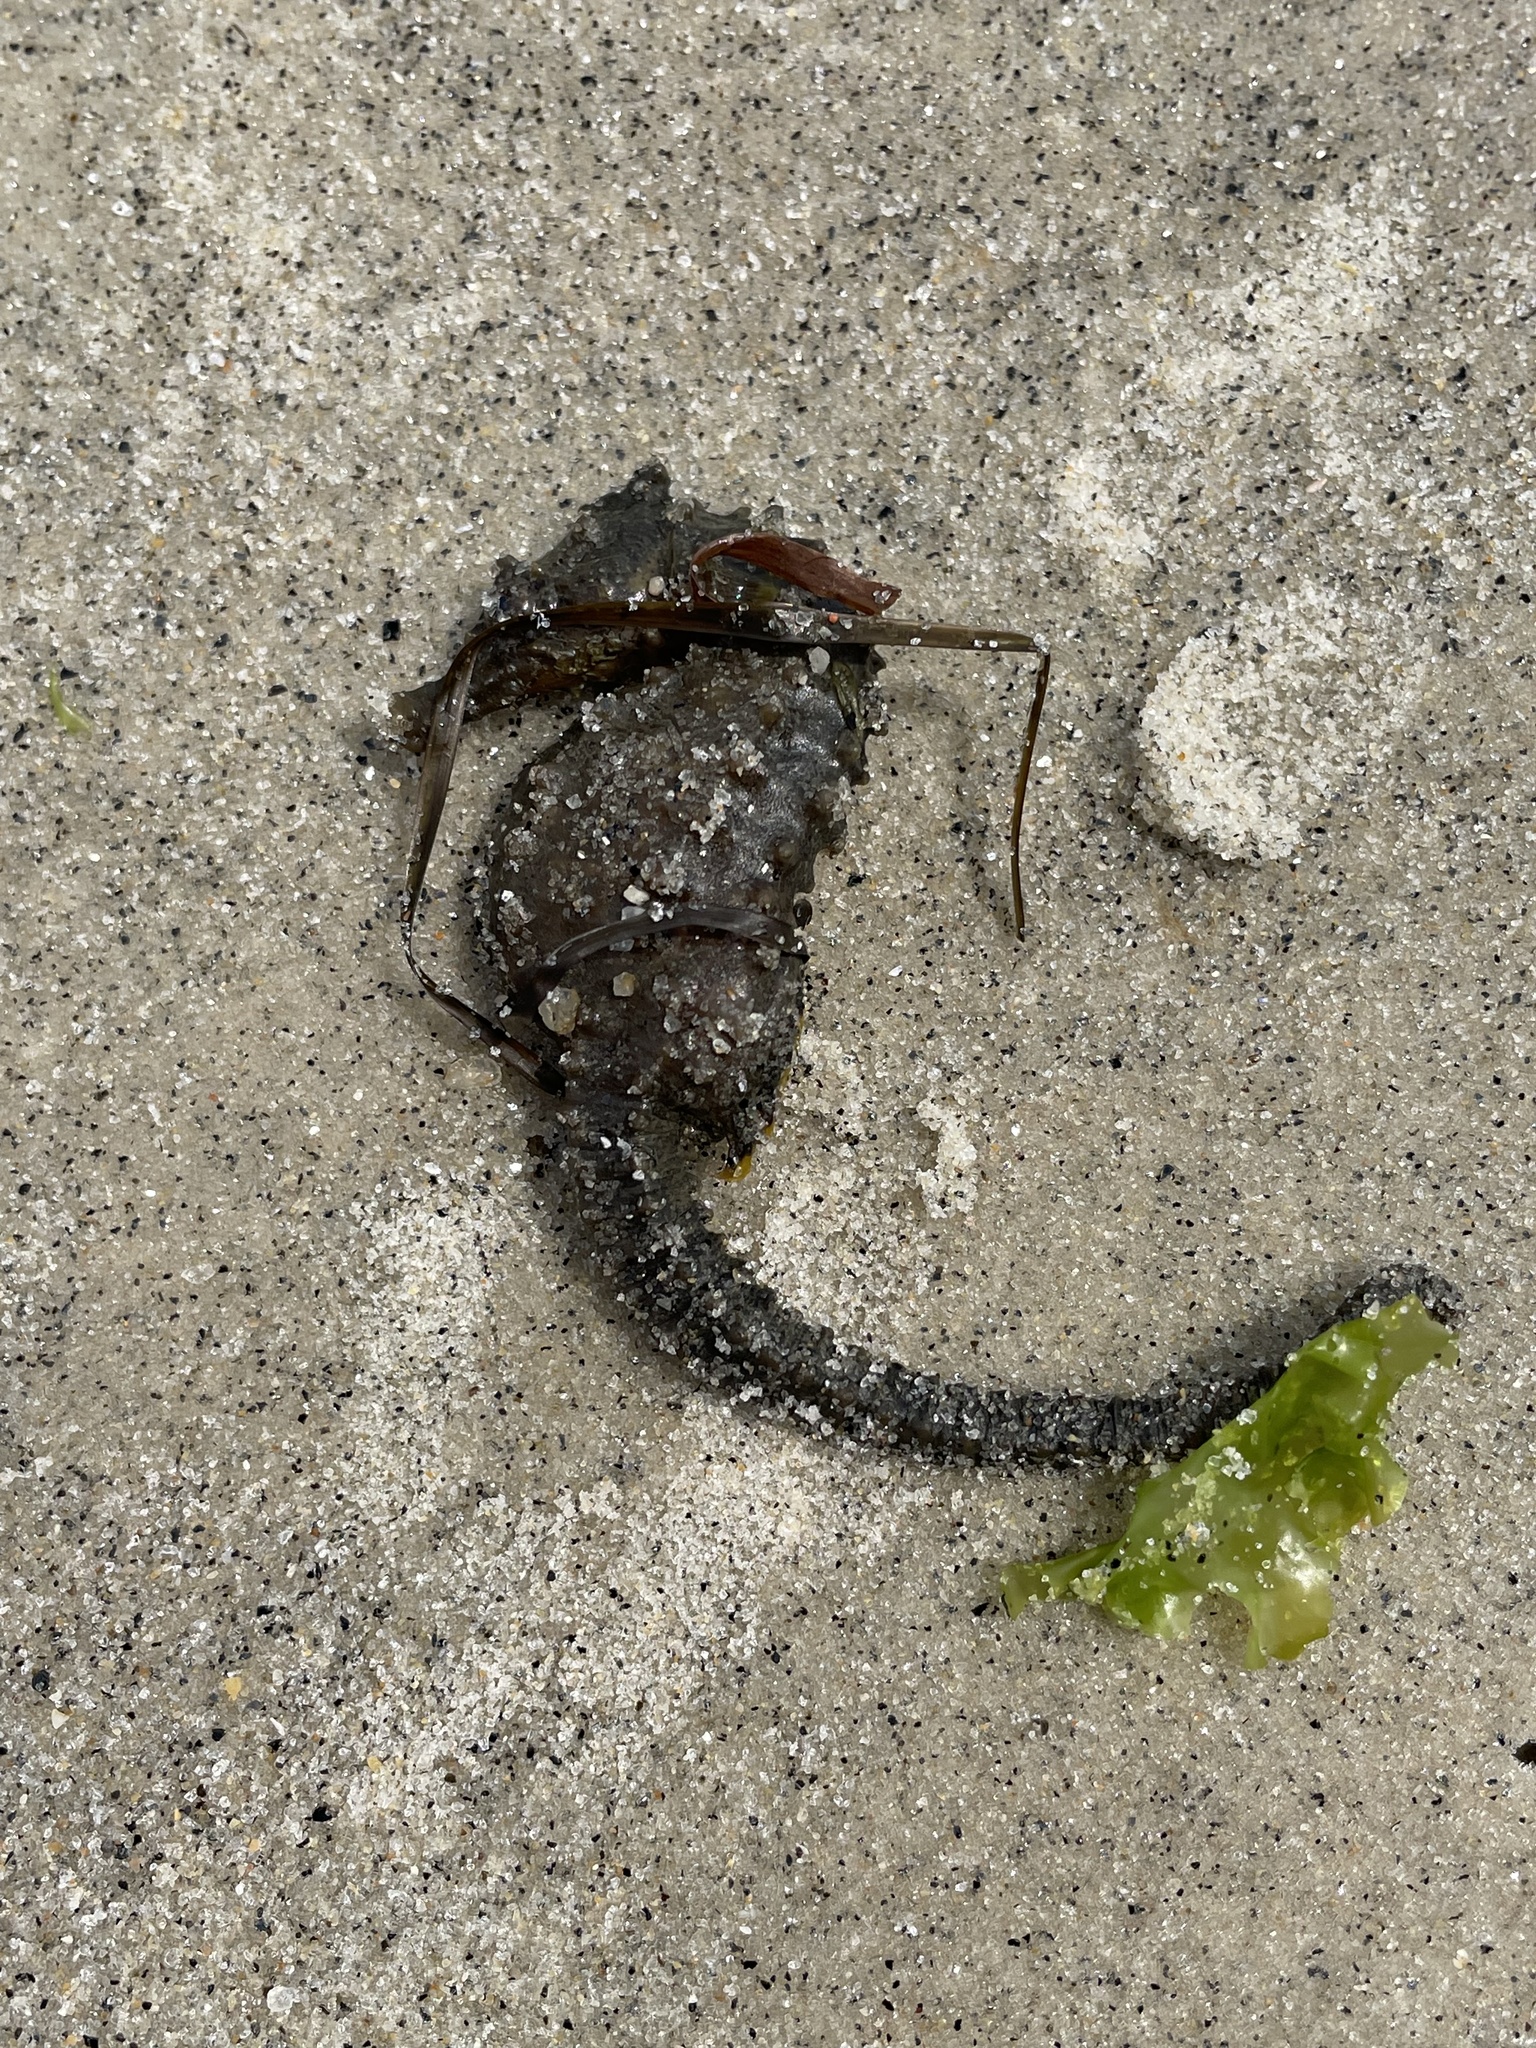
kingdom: Animalia
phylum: Chordata
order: Syngnathiformes
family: Syngnathidae
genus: Hippocampus
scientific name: Hippocampus erectus
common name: Lined seahorse
